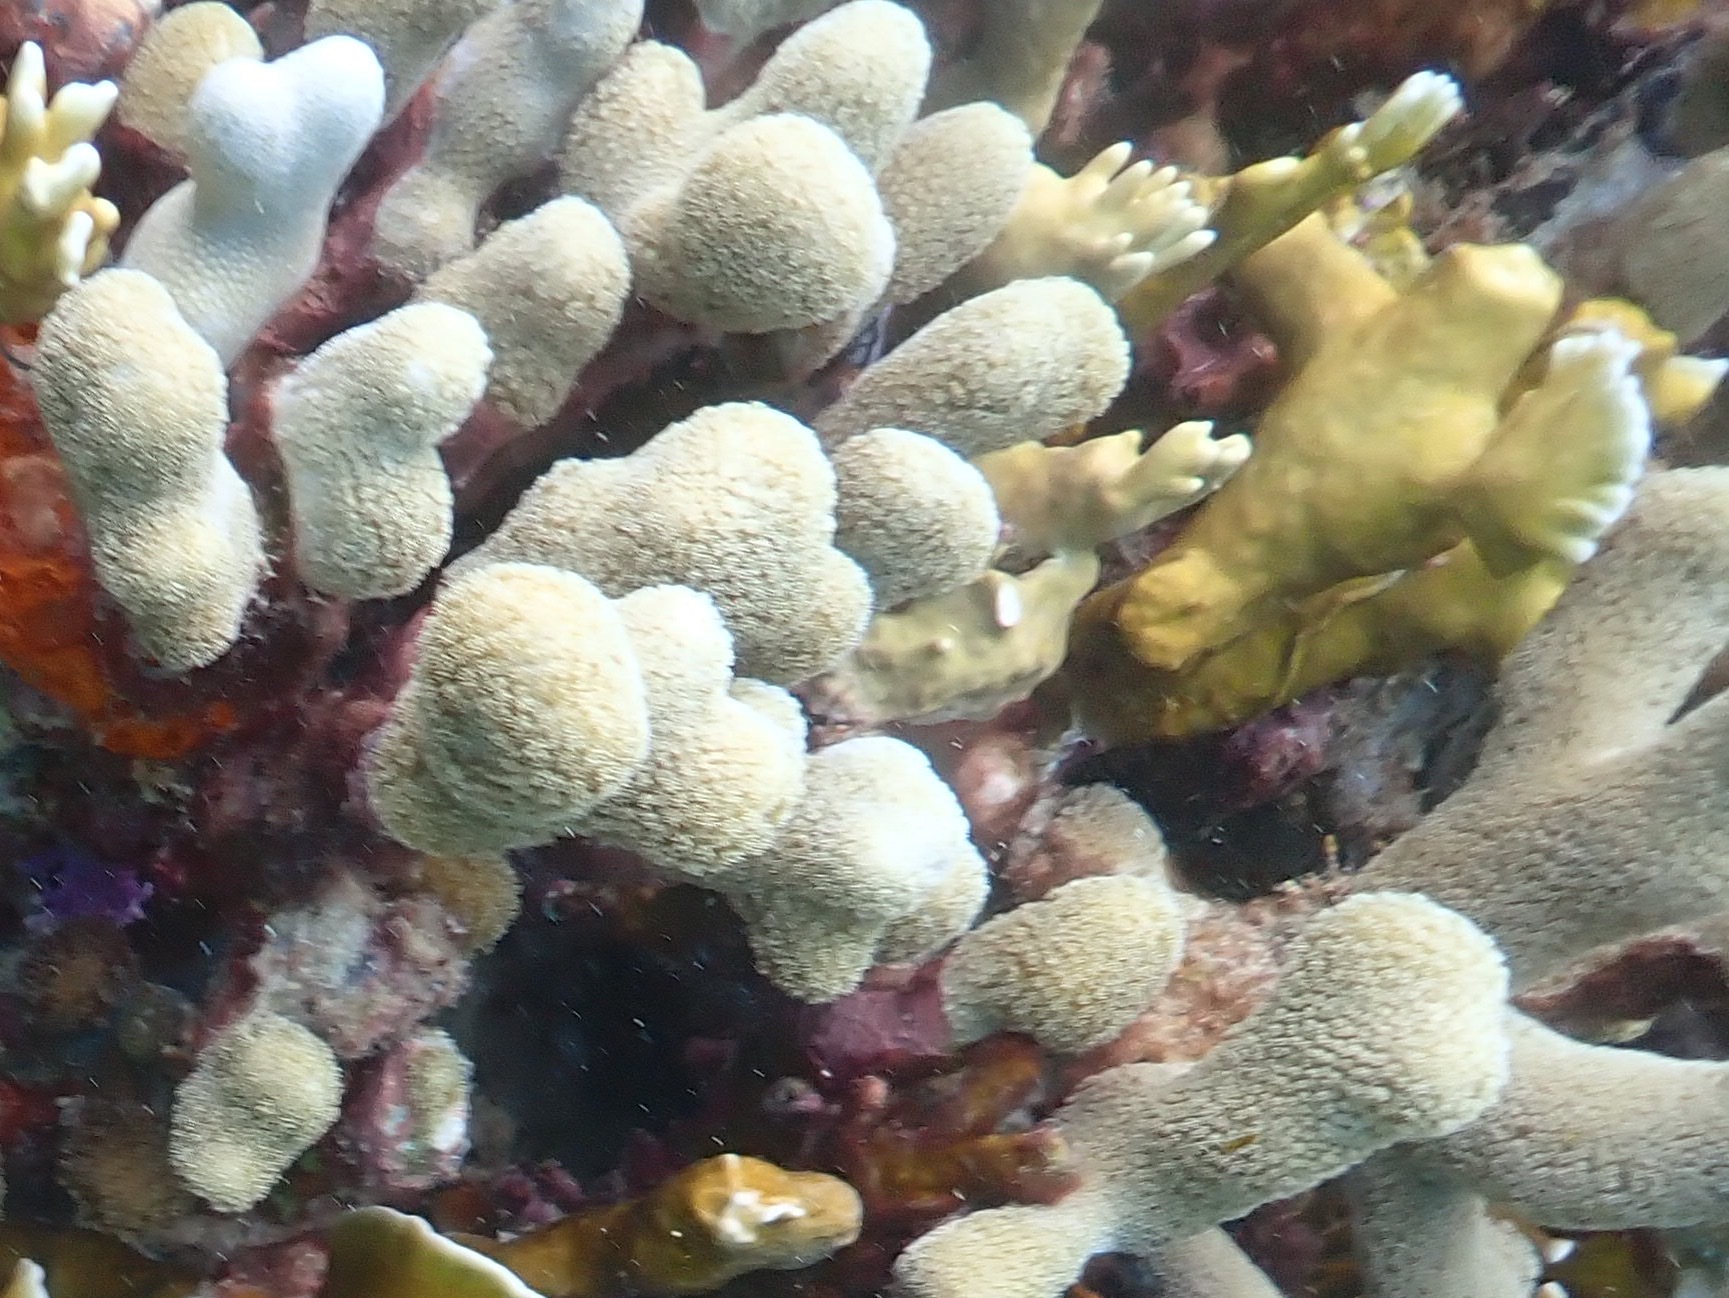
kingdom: Animalia
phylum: Cnidaria
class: Anthozoa
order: Scleractinia
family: Poritidae
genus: Porites
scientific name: Porites porites
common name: Finger coral
